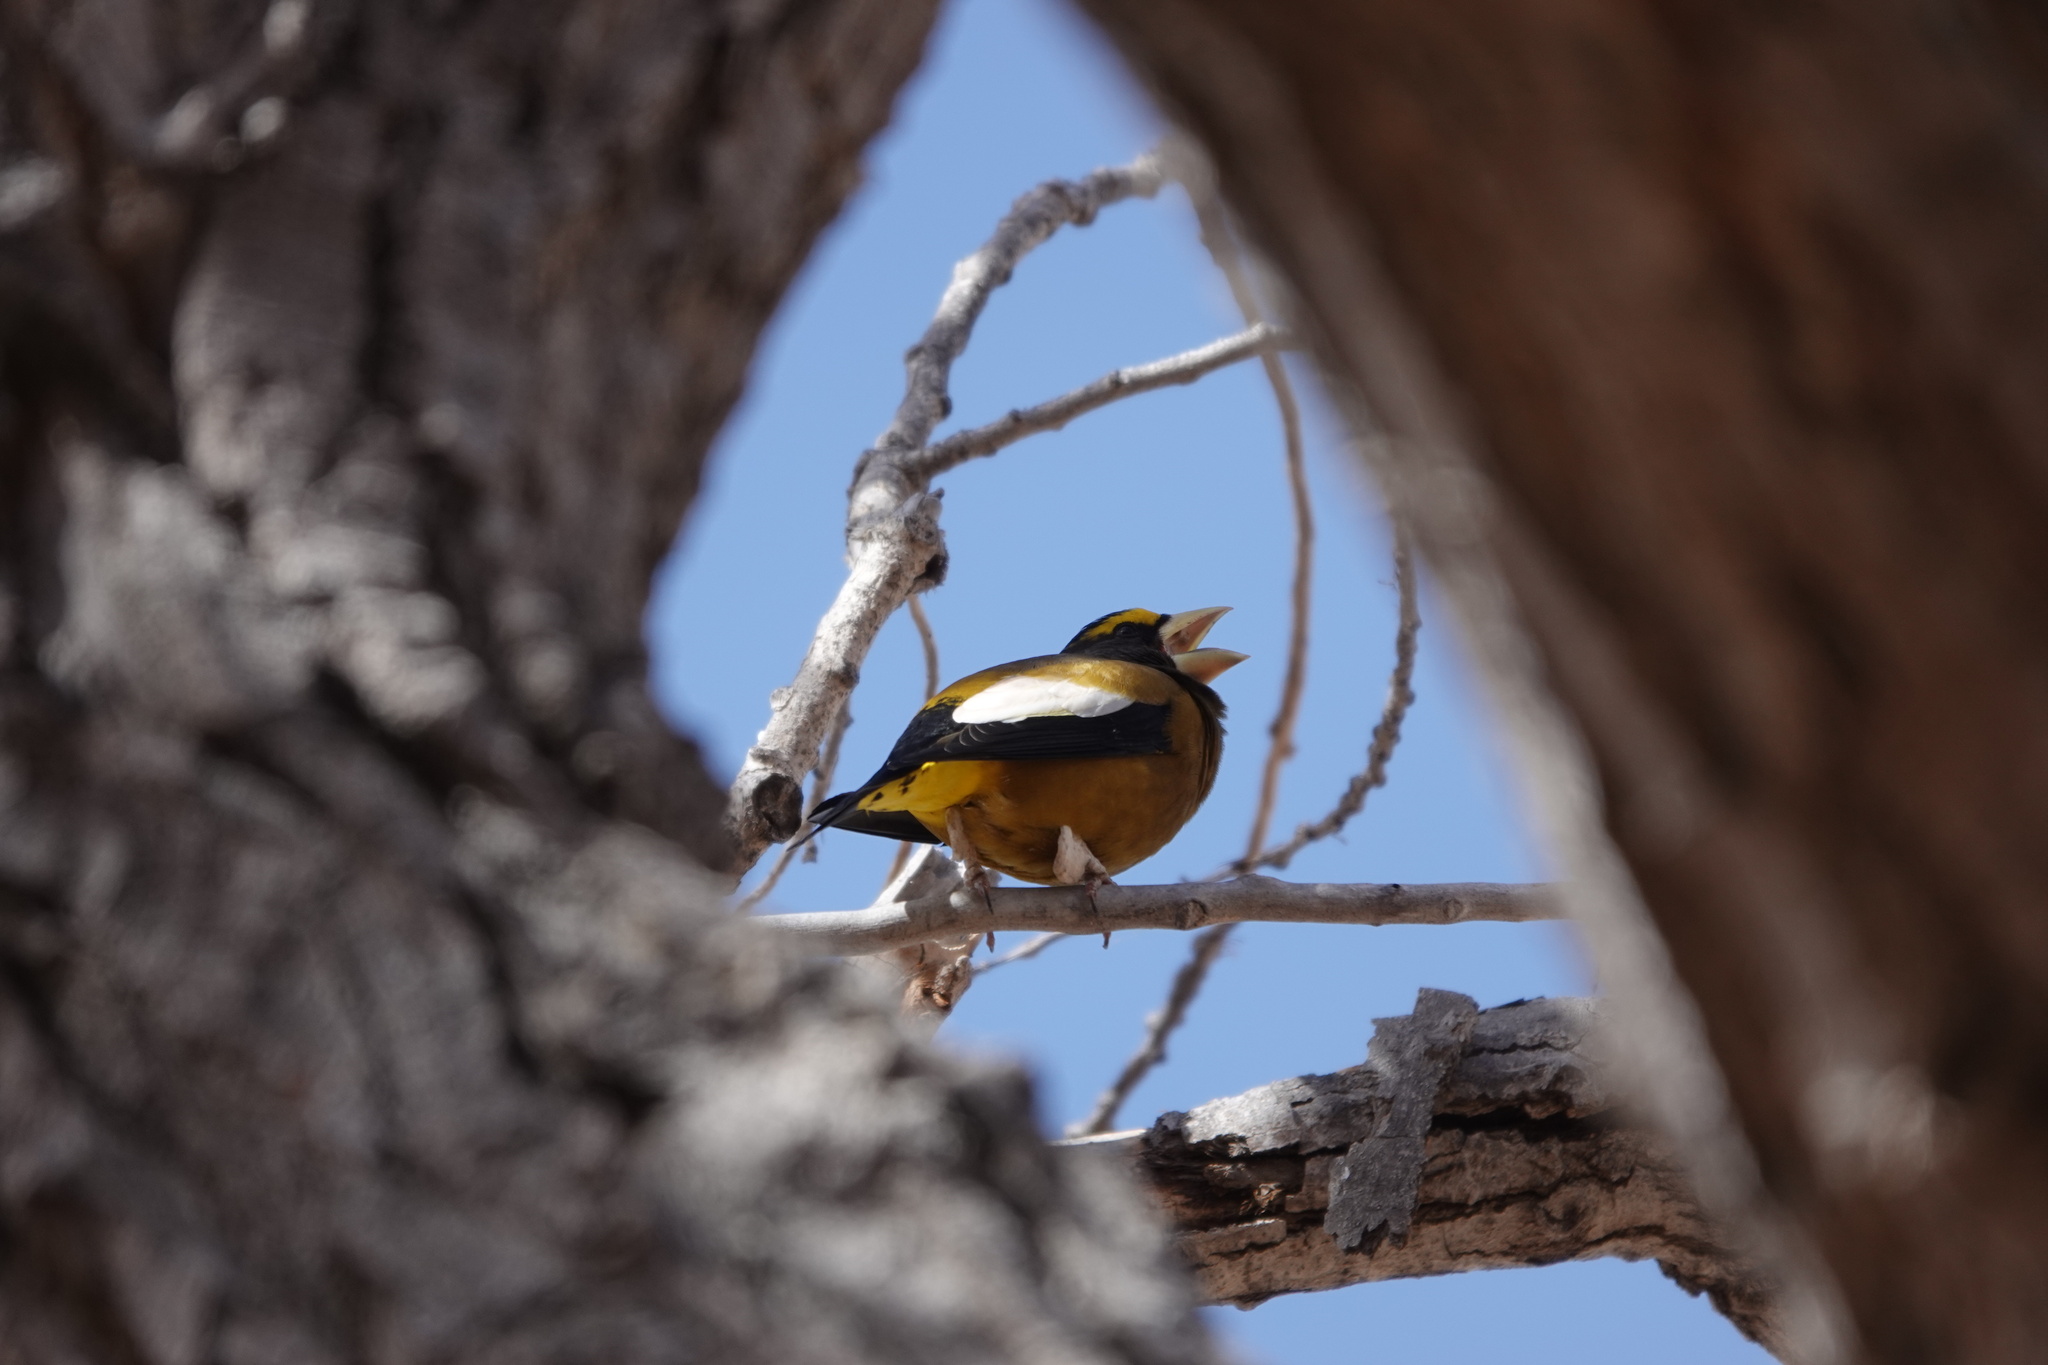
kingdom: Animalia
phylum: Chordata
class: Aves
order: Passeriformes
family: Fringillidae
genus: Hesperiphona
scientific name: Hesperiphona vespertina
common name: Evening grosbeak
